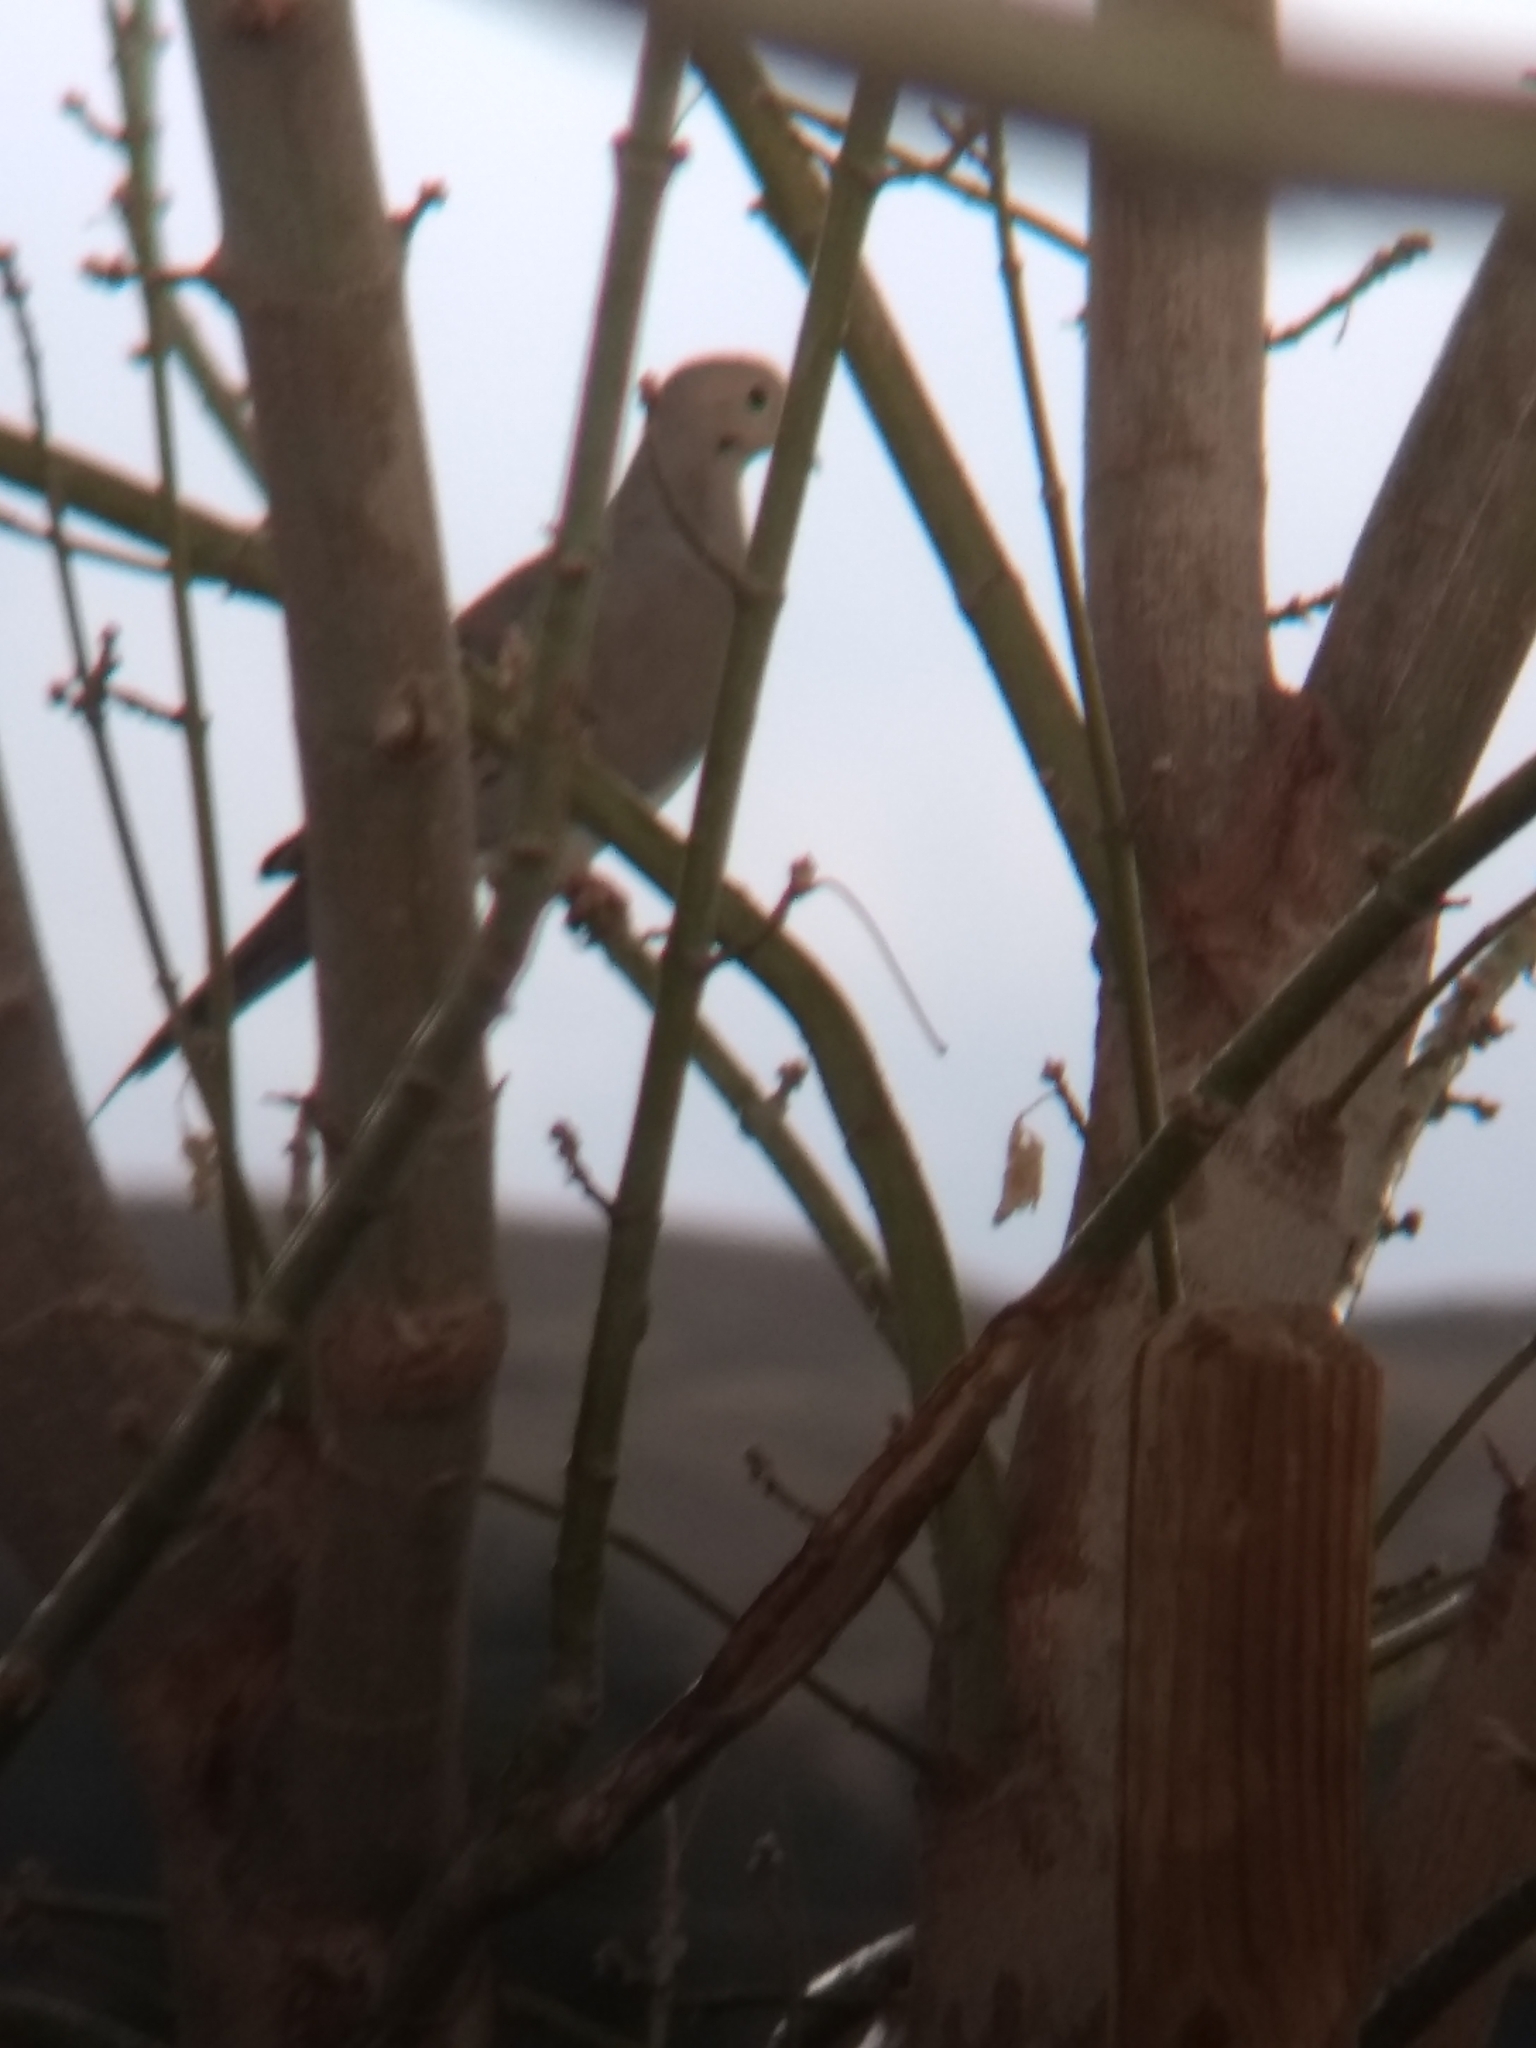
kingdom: Animalia
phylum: Chordata
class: Aves
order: Columbiformes
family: Columbidae
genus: Zenaida
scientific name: Zenaida macroura
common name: Mourning dove
